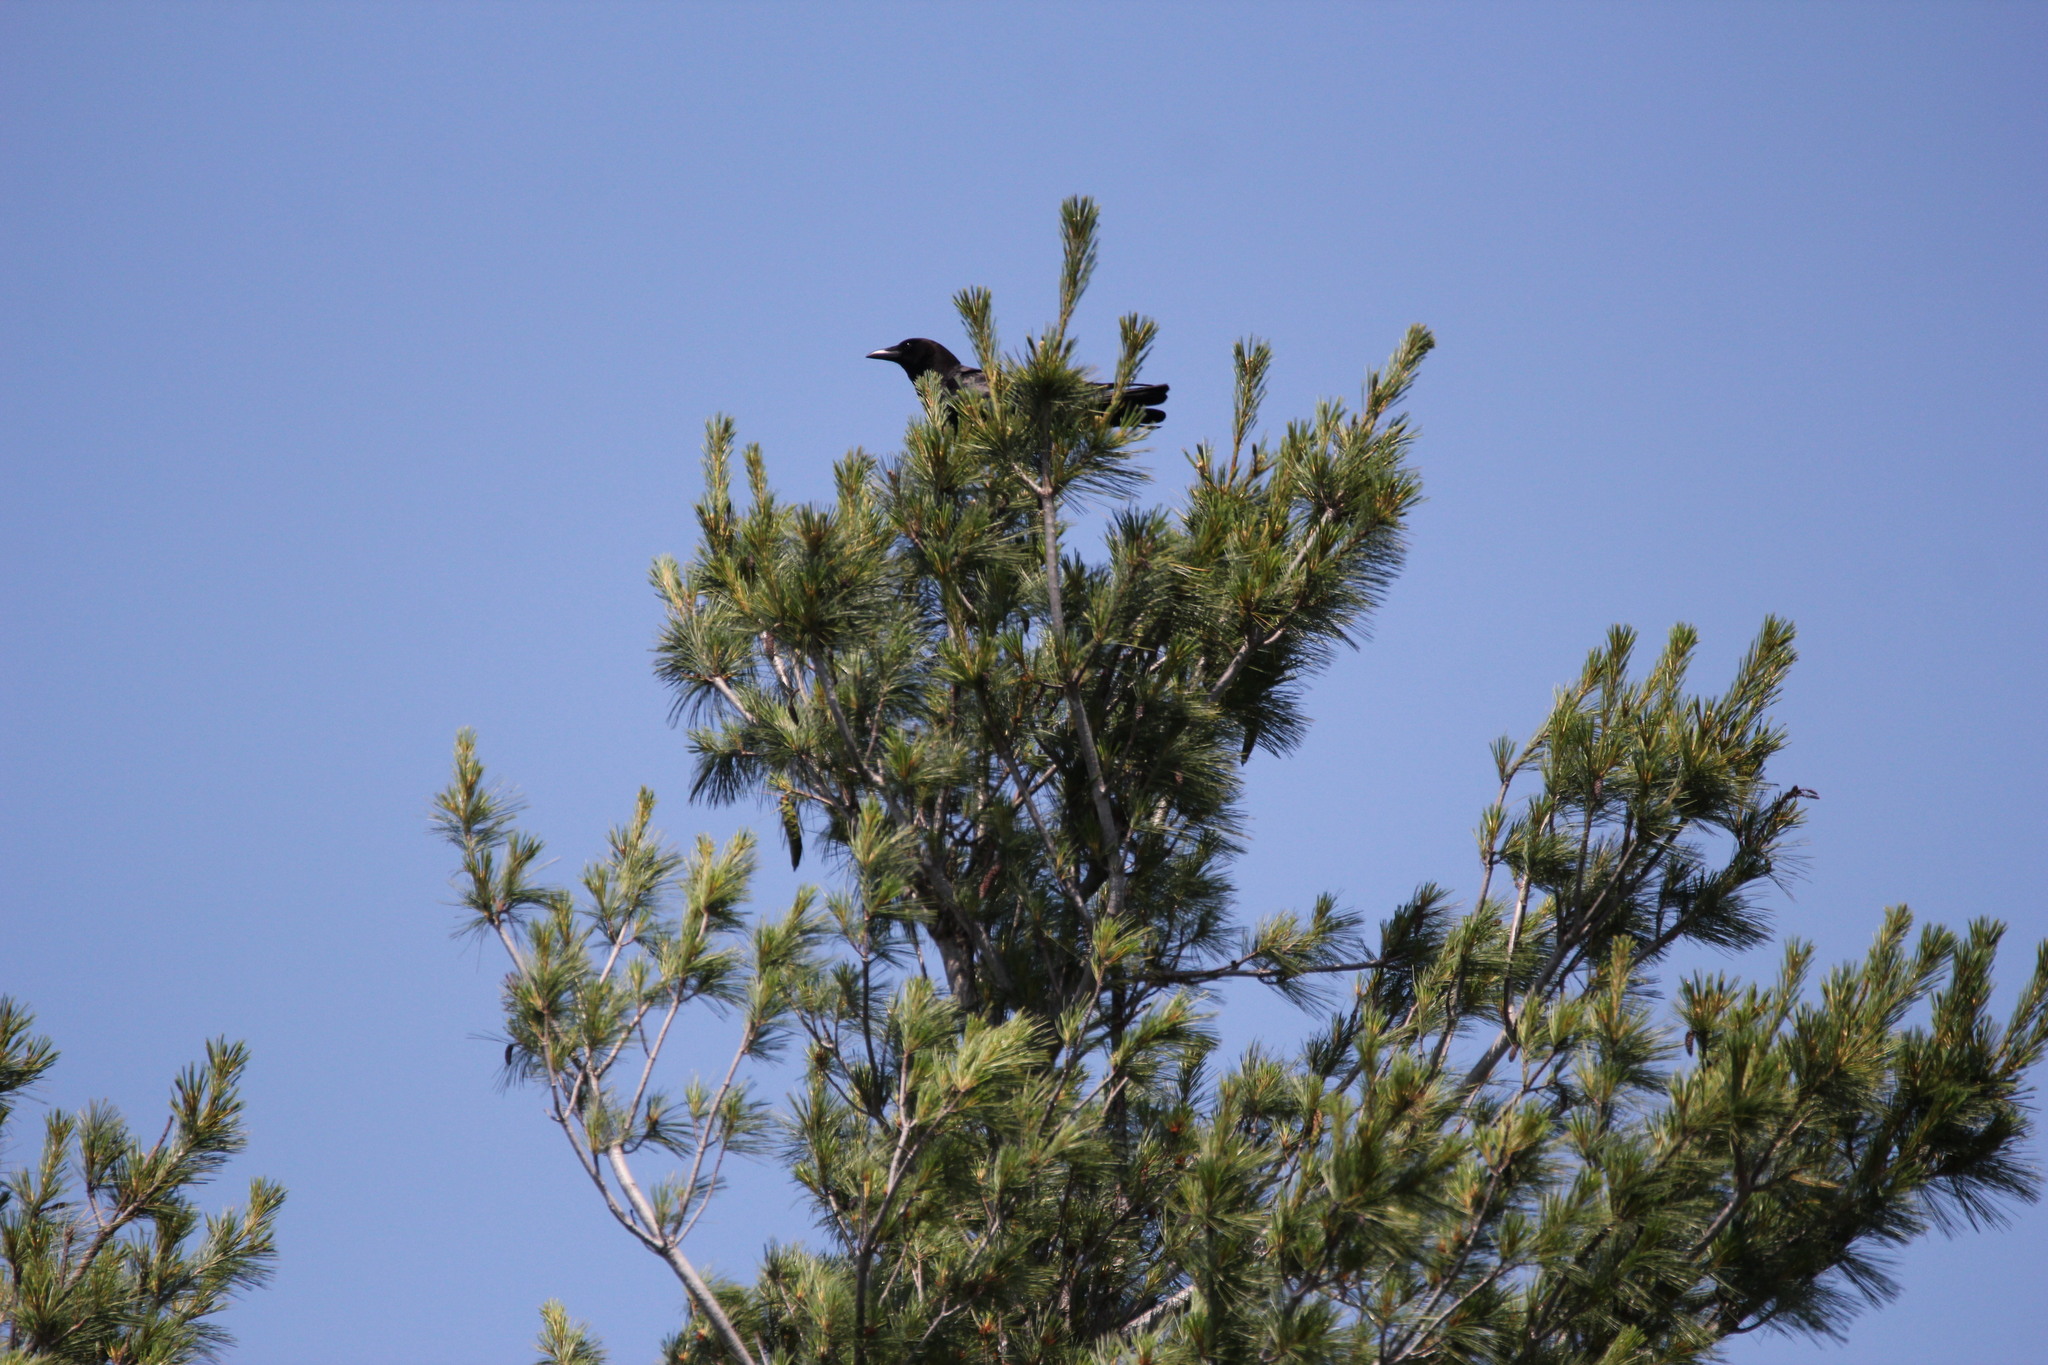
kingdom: Animalia
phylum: Chordata
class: Aves
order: Passeriformes
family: Corvidae
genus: Corvus
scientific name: Corvus brachyrhynchos
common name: American crow
